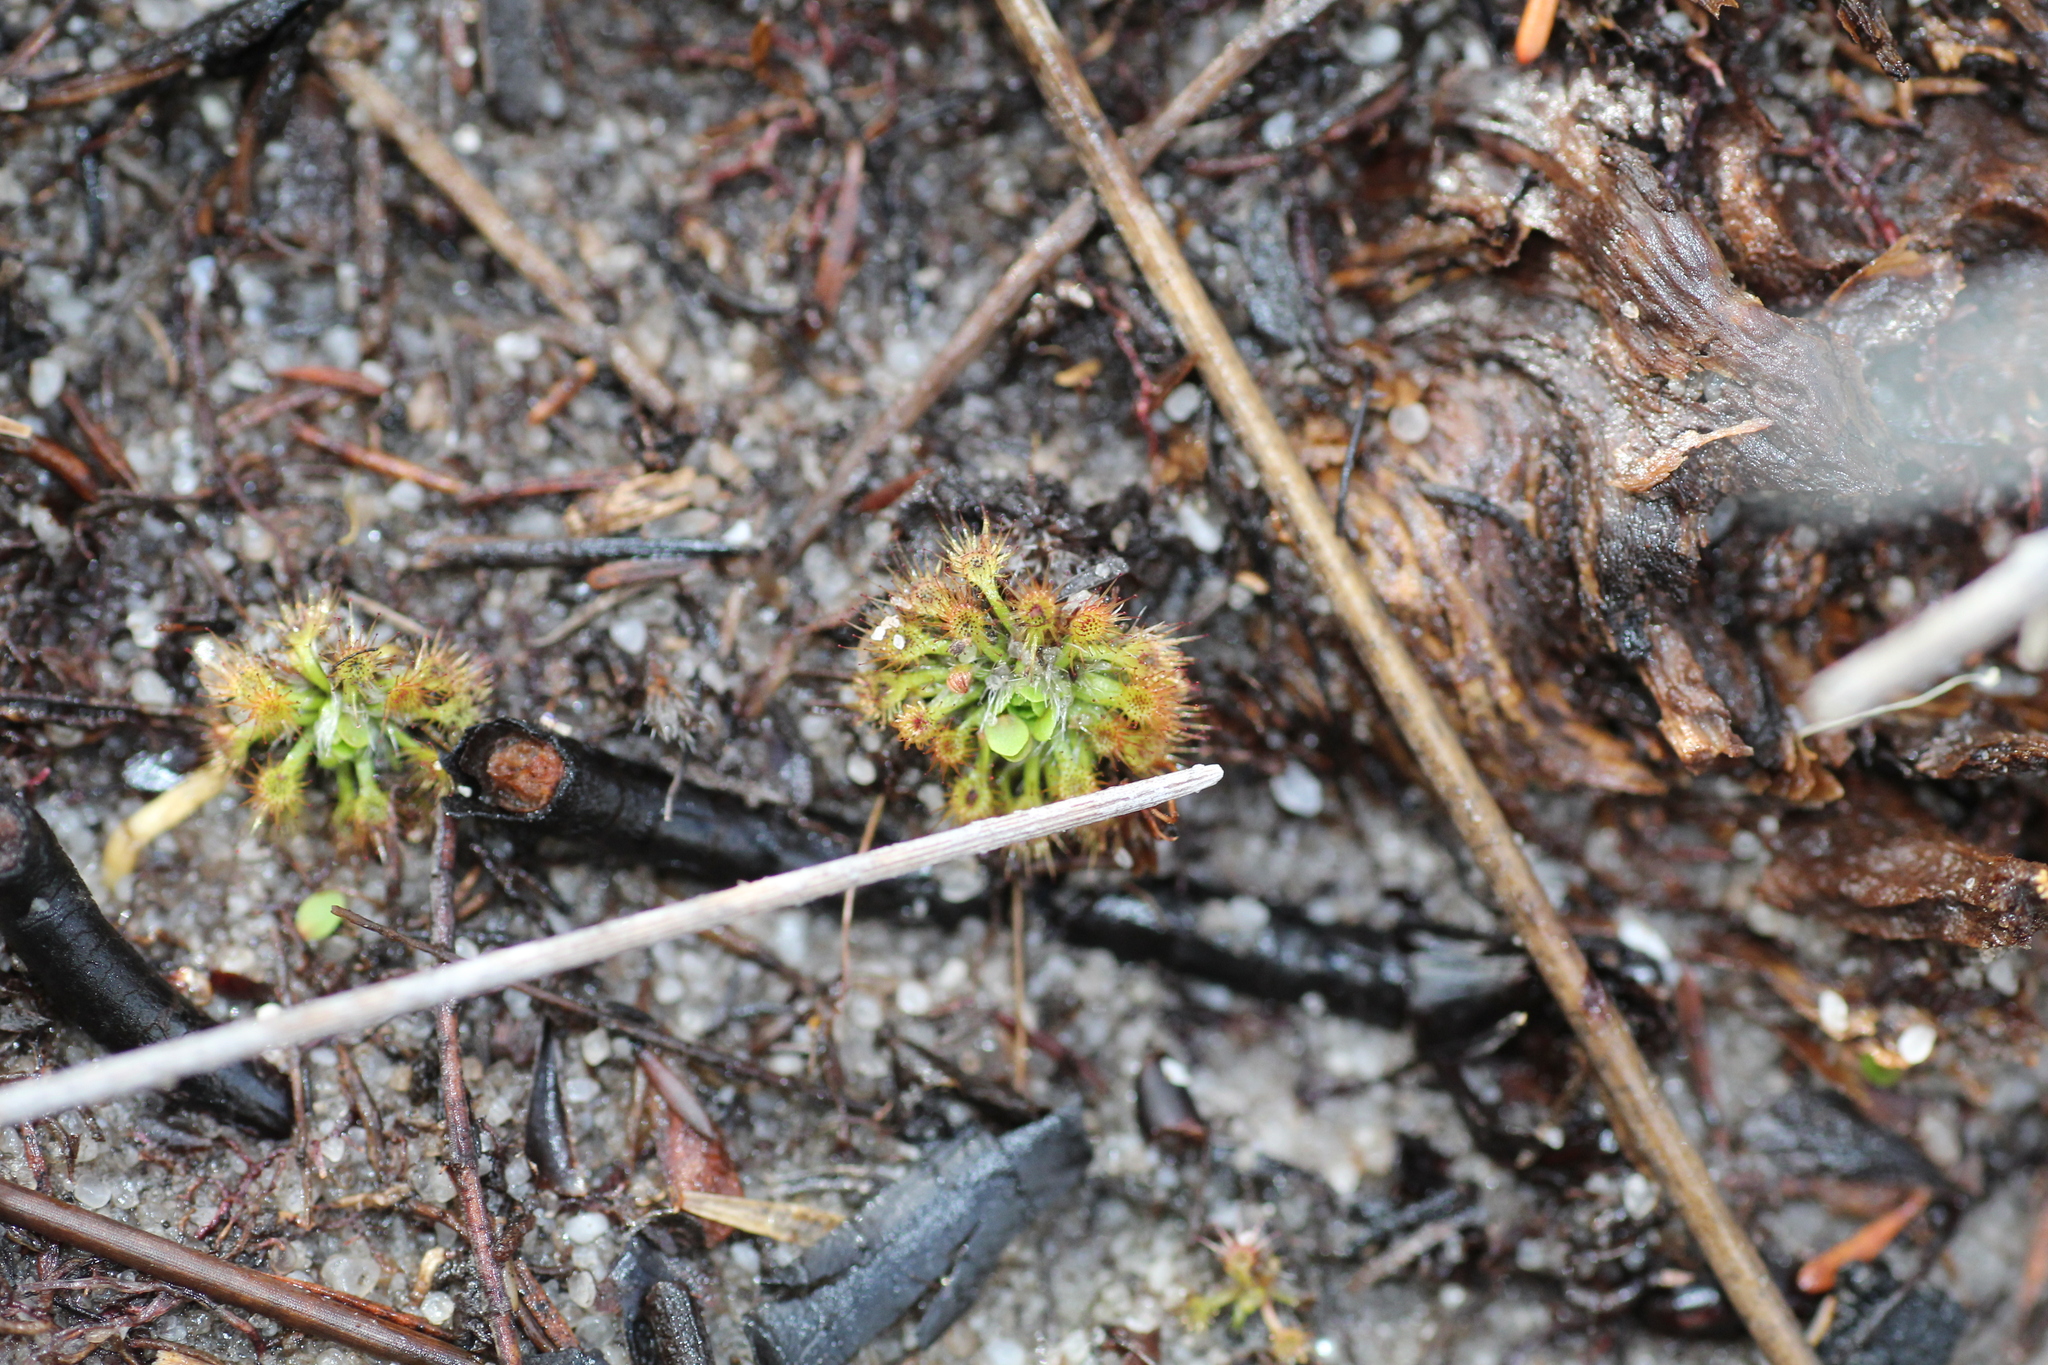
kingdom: Plantae
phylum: Tracheophyta
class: Magnoliopsida
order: Caryophyllales
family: Droseraceae
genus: Drosera
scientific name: Drosera patens
